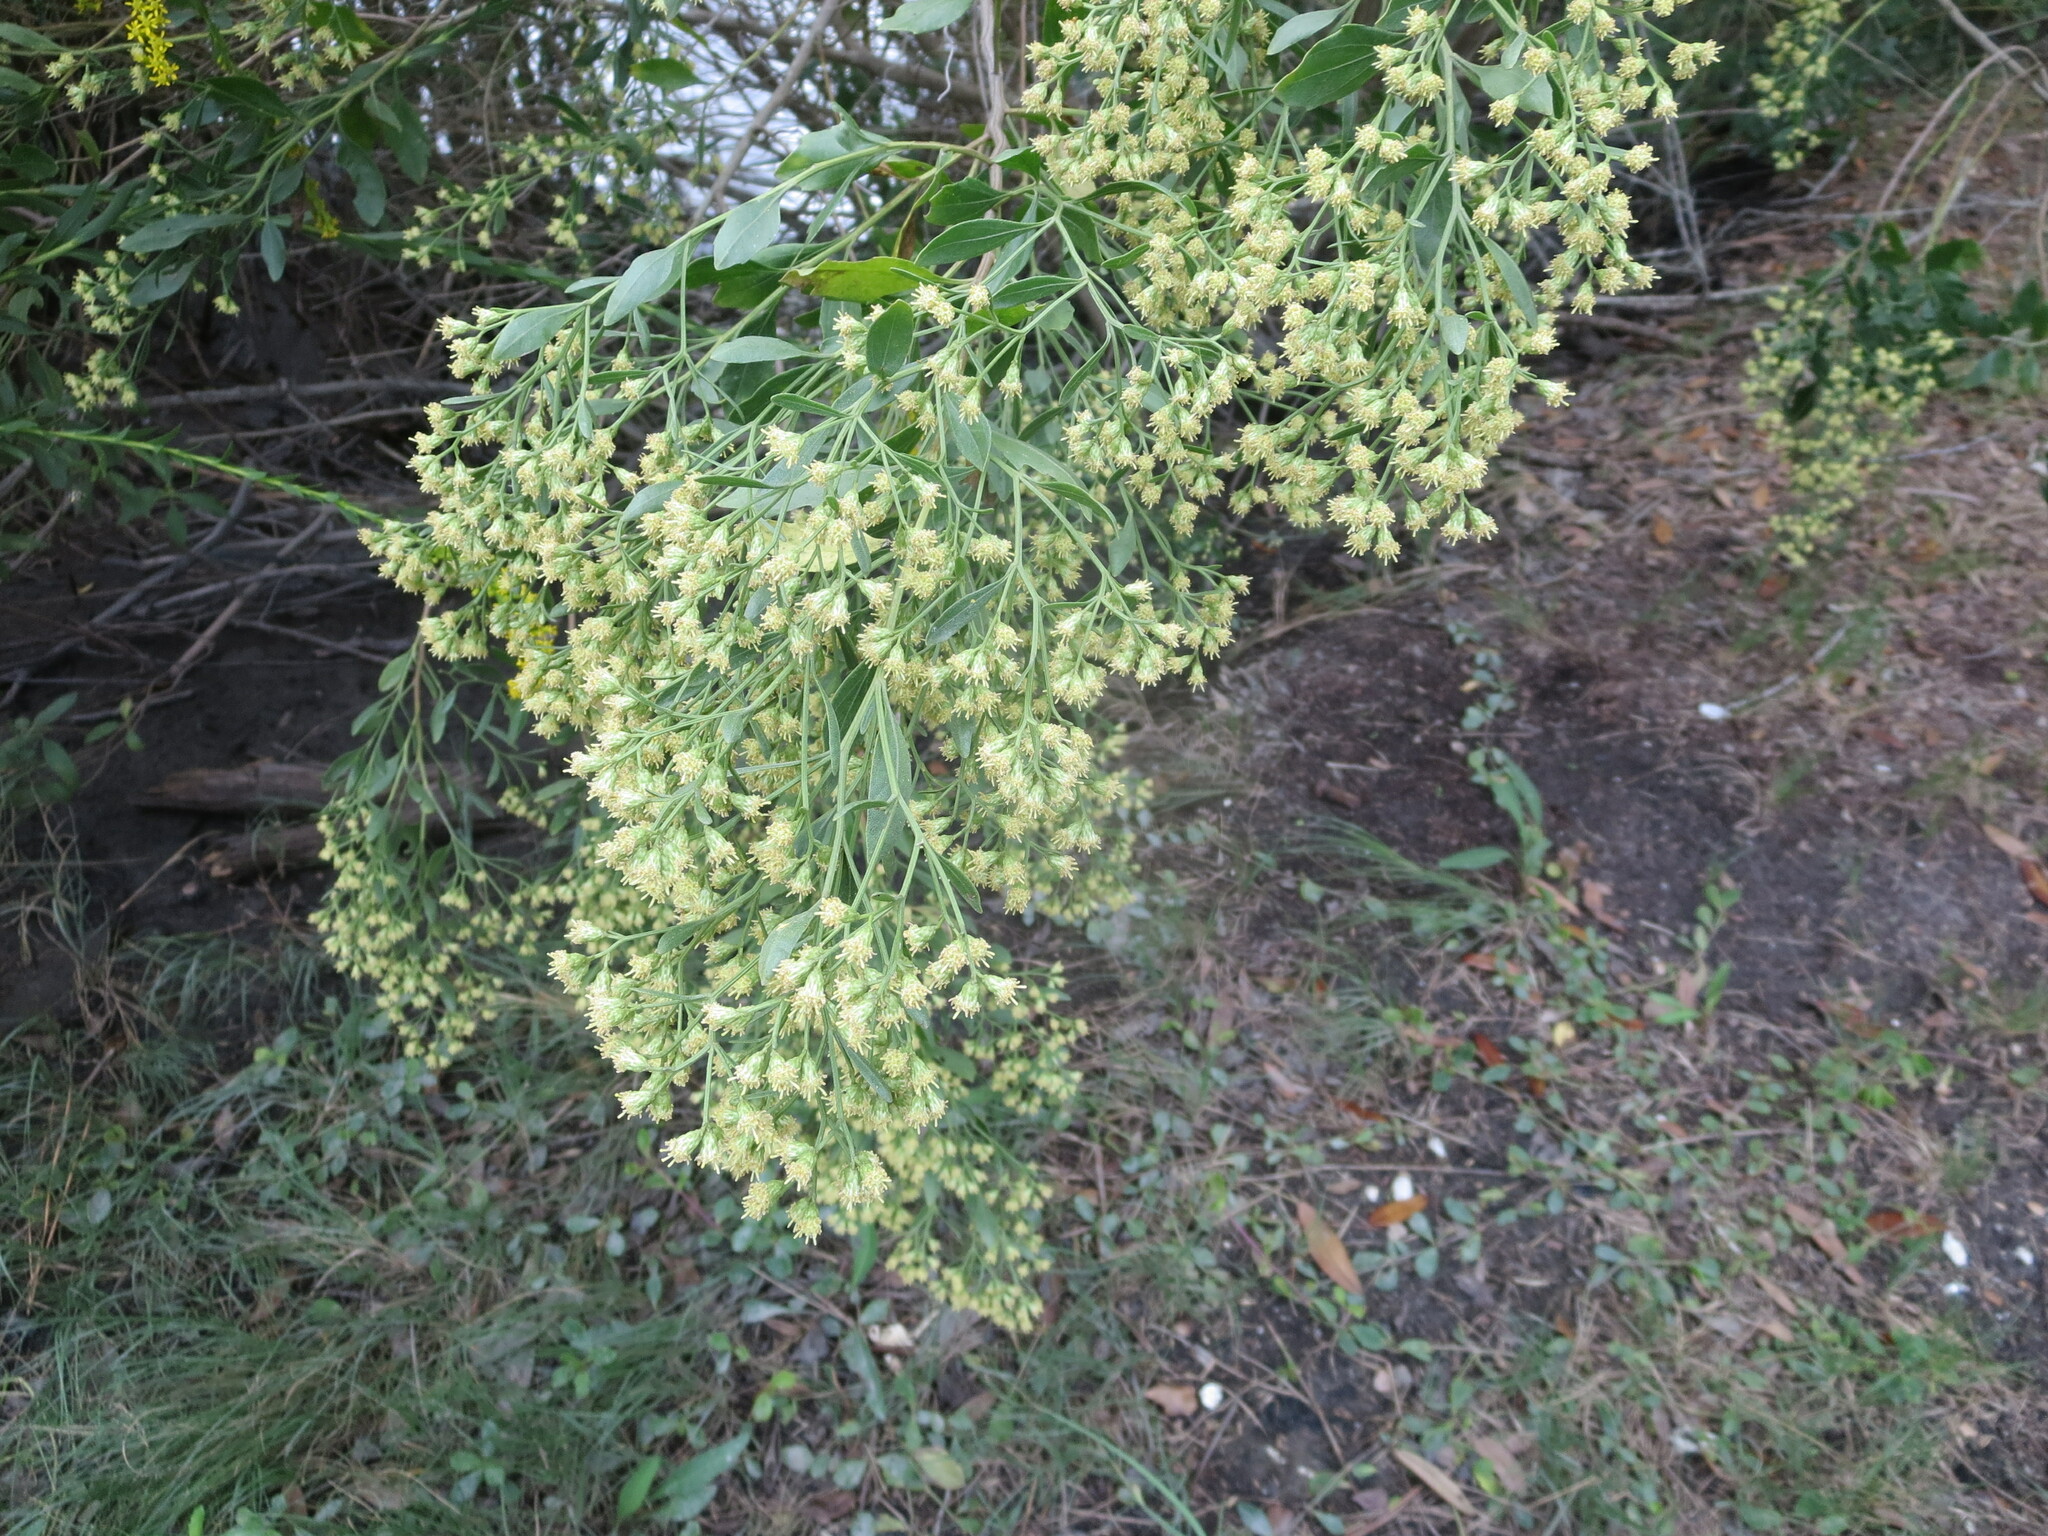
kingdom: Plantae
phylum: Tracheophyta
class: Magnoliopsida
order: Asterales
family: Asteraceae
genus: Baccharis
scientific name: Baccharis halimifolia
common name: Eastern baccharis
